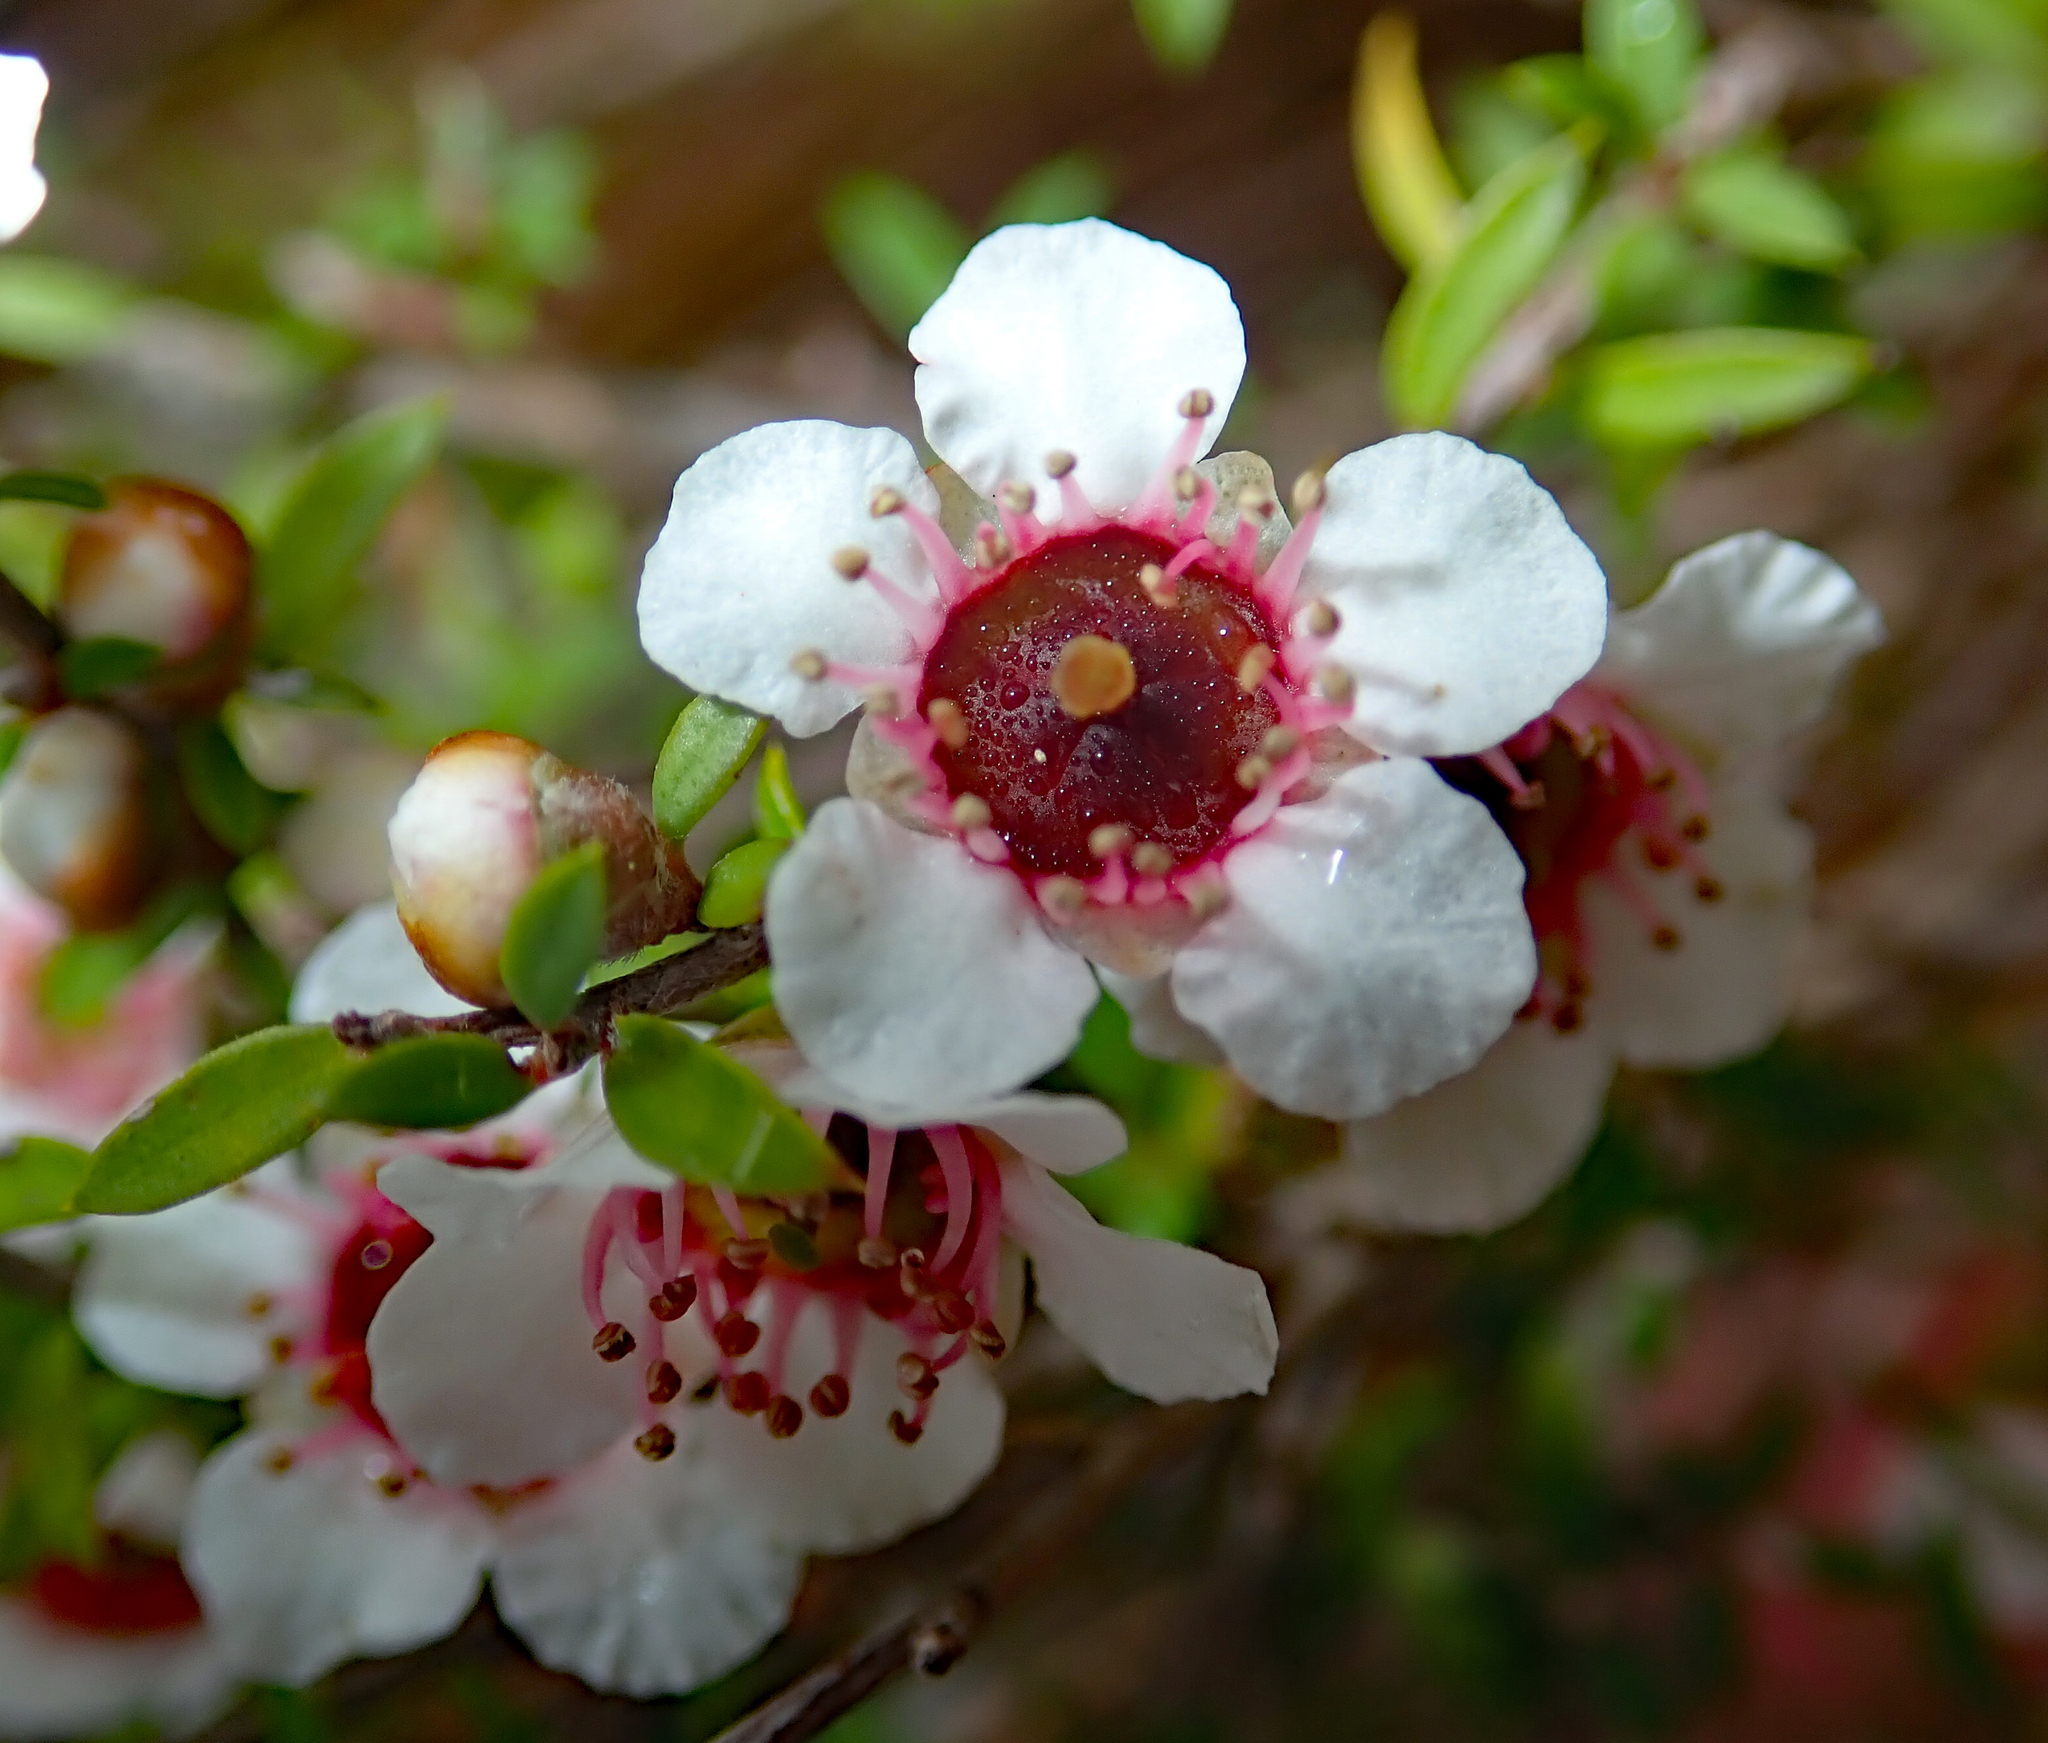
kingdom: Plantae
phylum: Tracheophyta
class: Magnoliopsida
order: Myrtales
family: Myrtaceae
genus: Leptospermum
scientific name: Leptospermum scoparium
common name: Broom tea-tree
